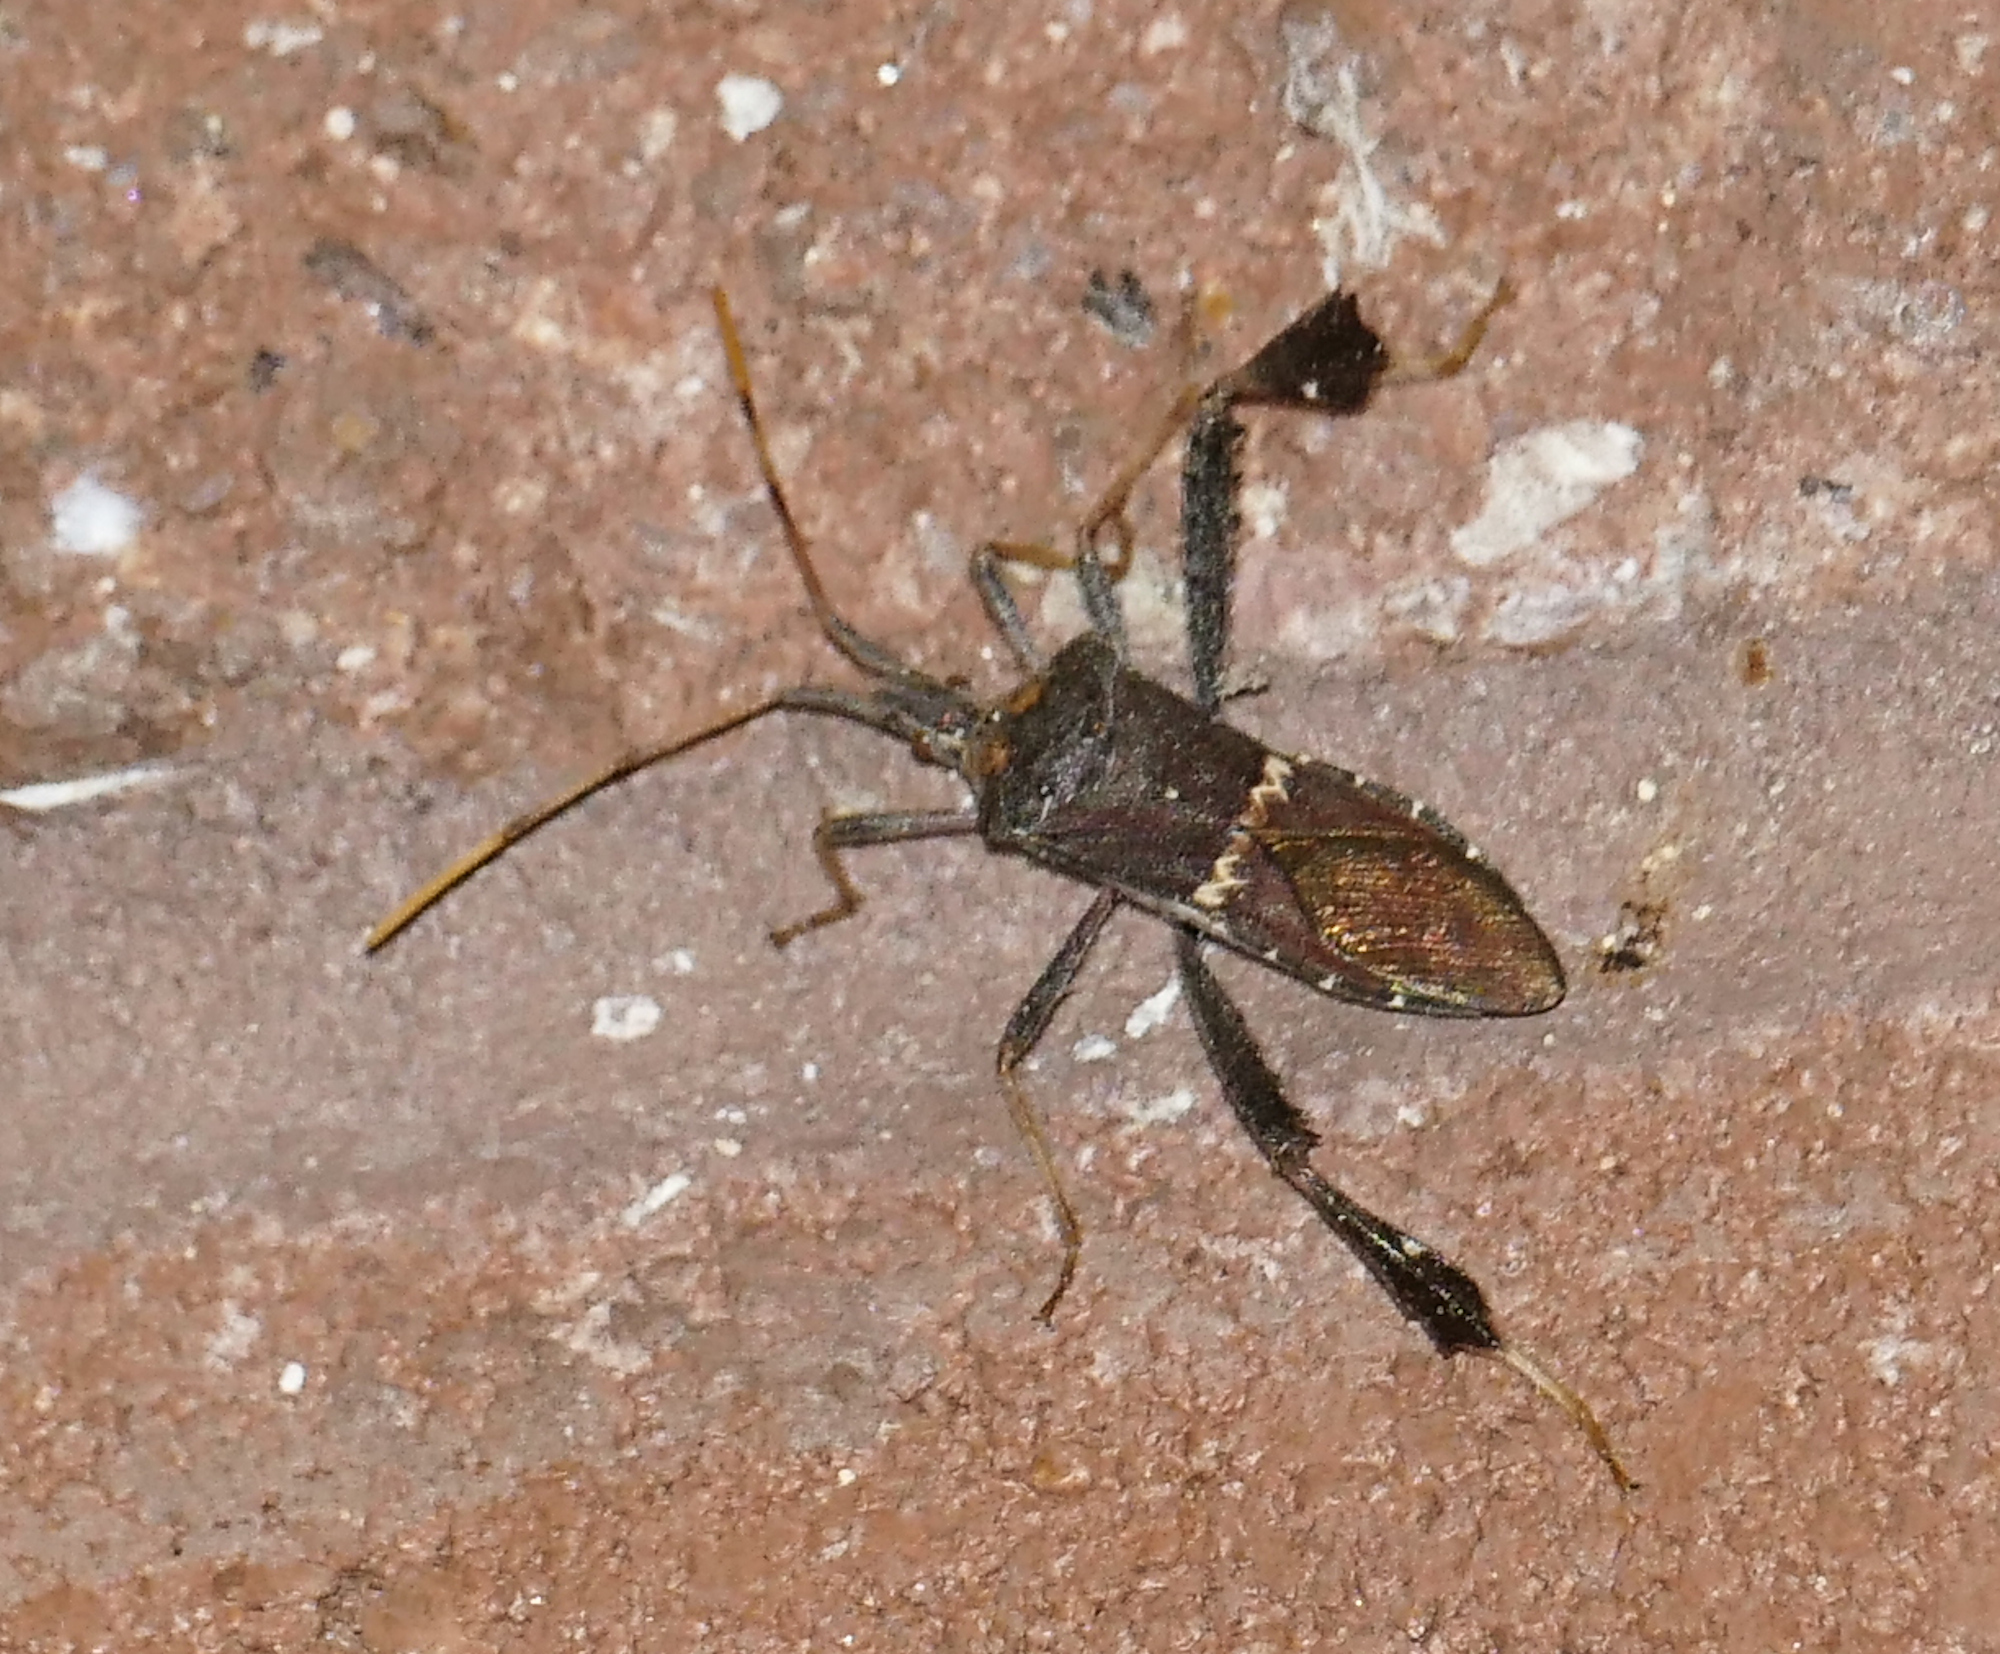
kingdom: Animalia
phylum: Arthropoda
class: Insecta
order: Hemiptera
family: Coreidae
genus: Leptoglossus
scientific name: Leptoglossus zonatus
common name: Large-legged bug
